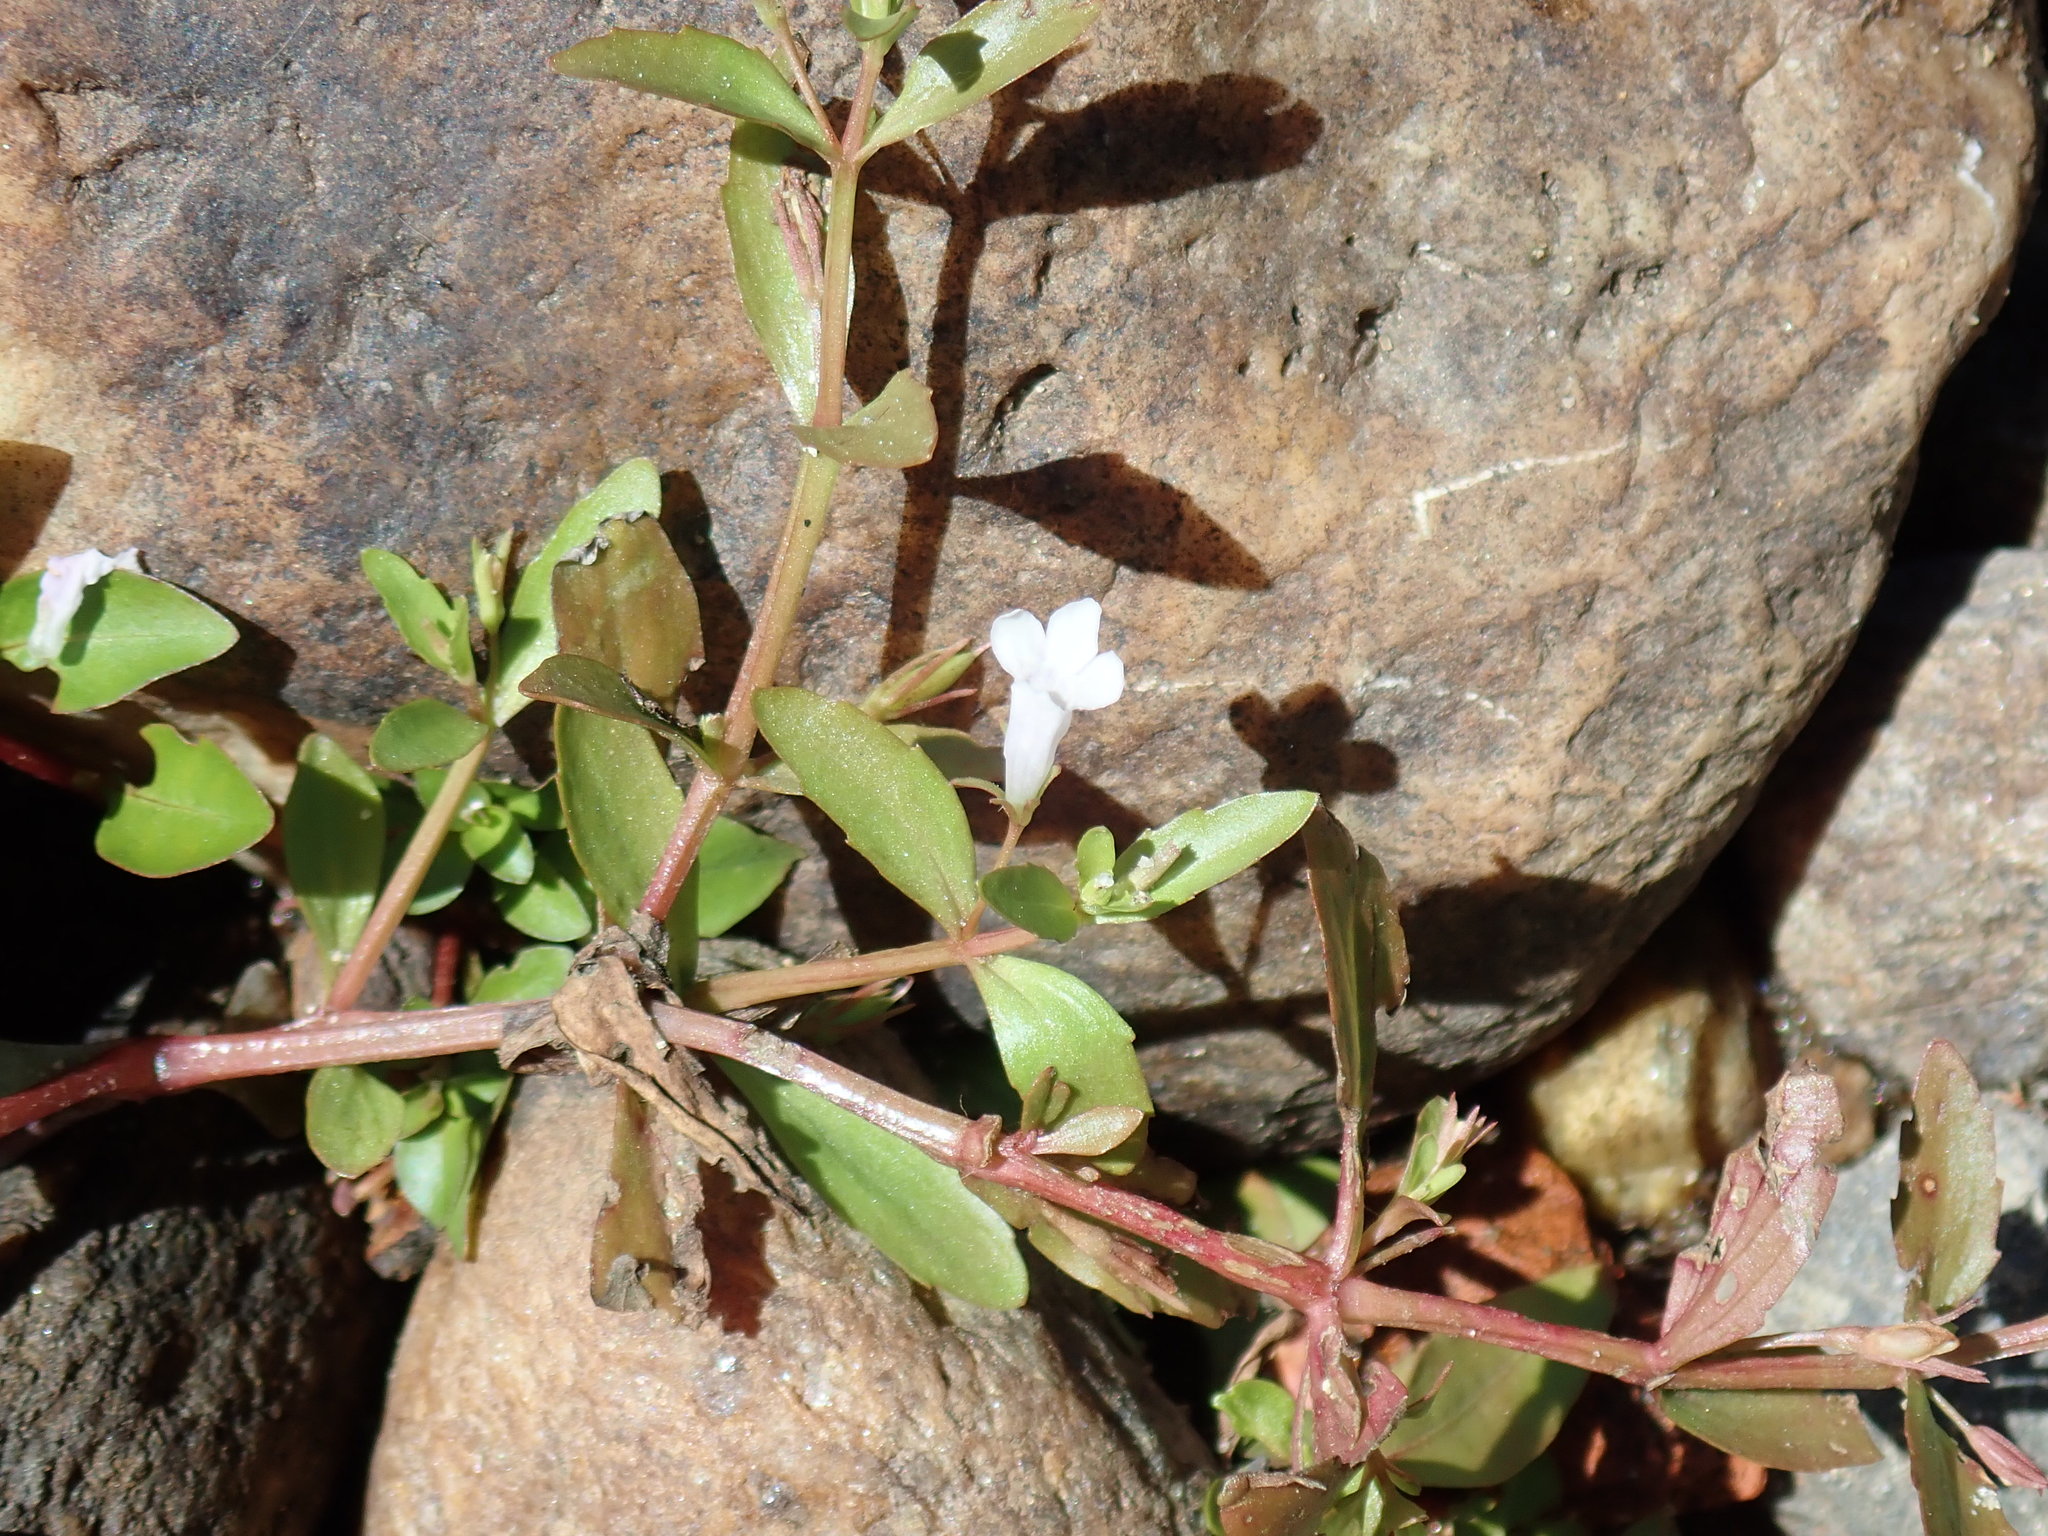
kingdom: Plantae
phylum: Tracheophyta
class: Magnoliopsida
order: Lamiales
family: Linderniaceae
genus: Lindernia
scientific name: Lindernia dubia
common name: Annual false pimpernel
